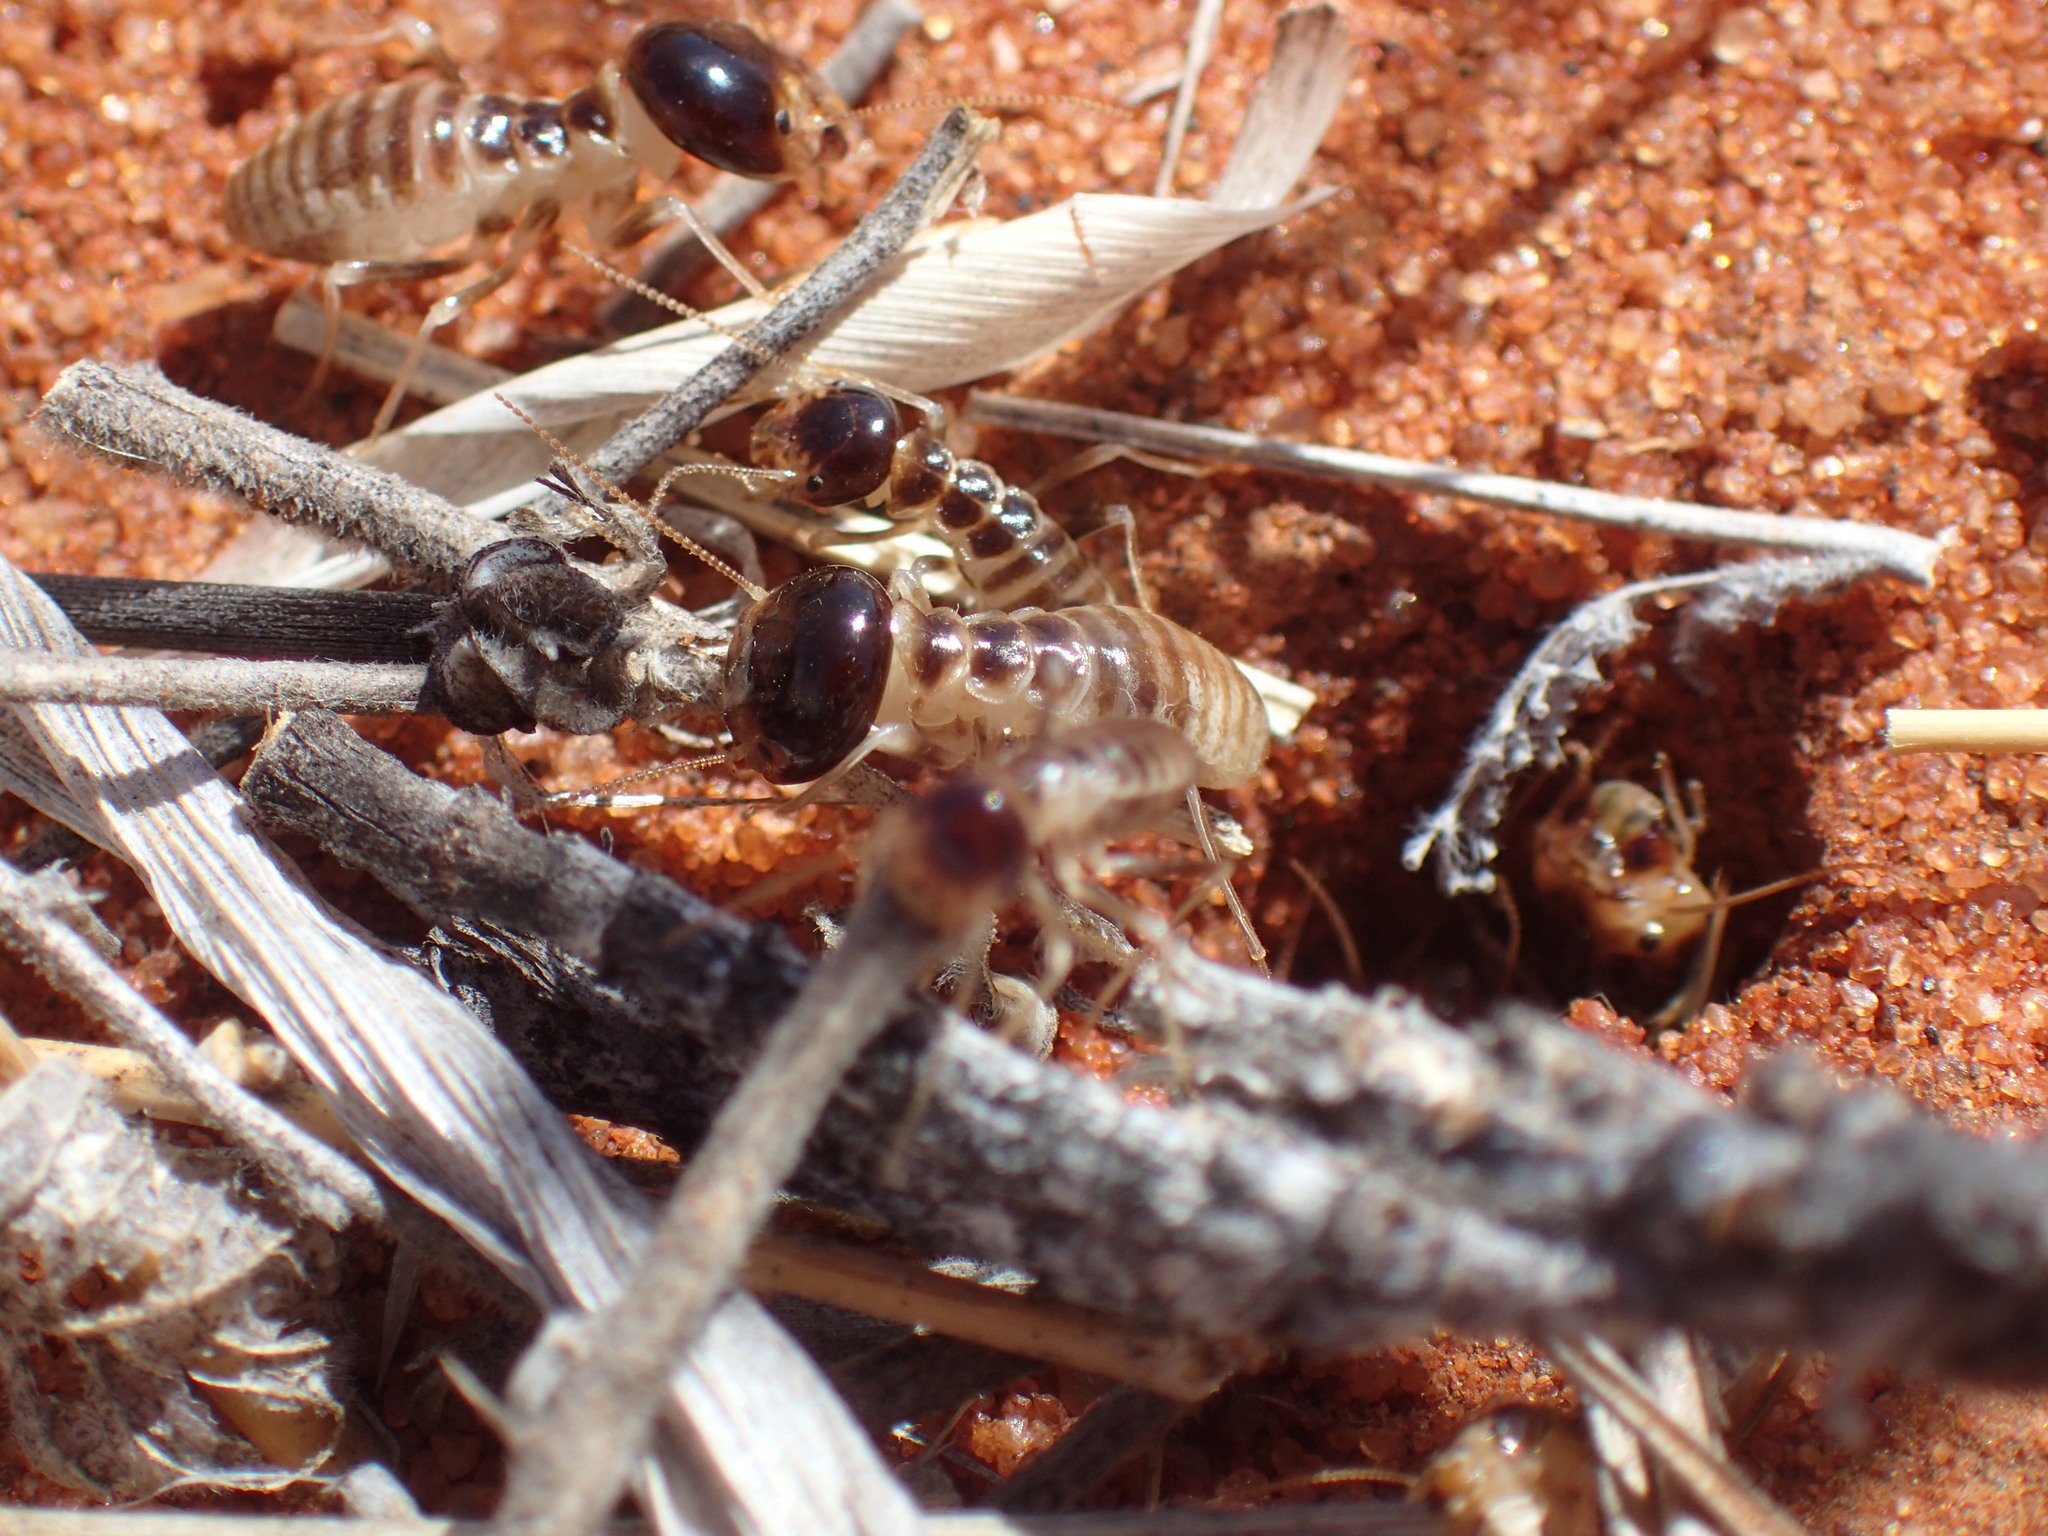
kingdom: Animalia
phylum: Arthropoda
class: Insecta
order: Blattodea
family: Hodotermitidae
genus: Hodotermes
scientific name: Hodotermes mossambicus
